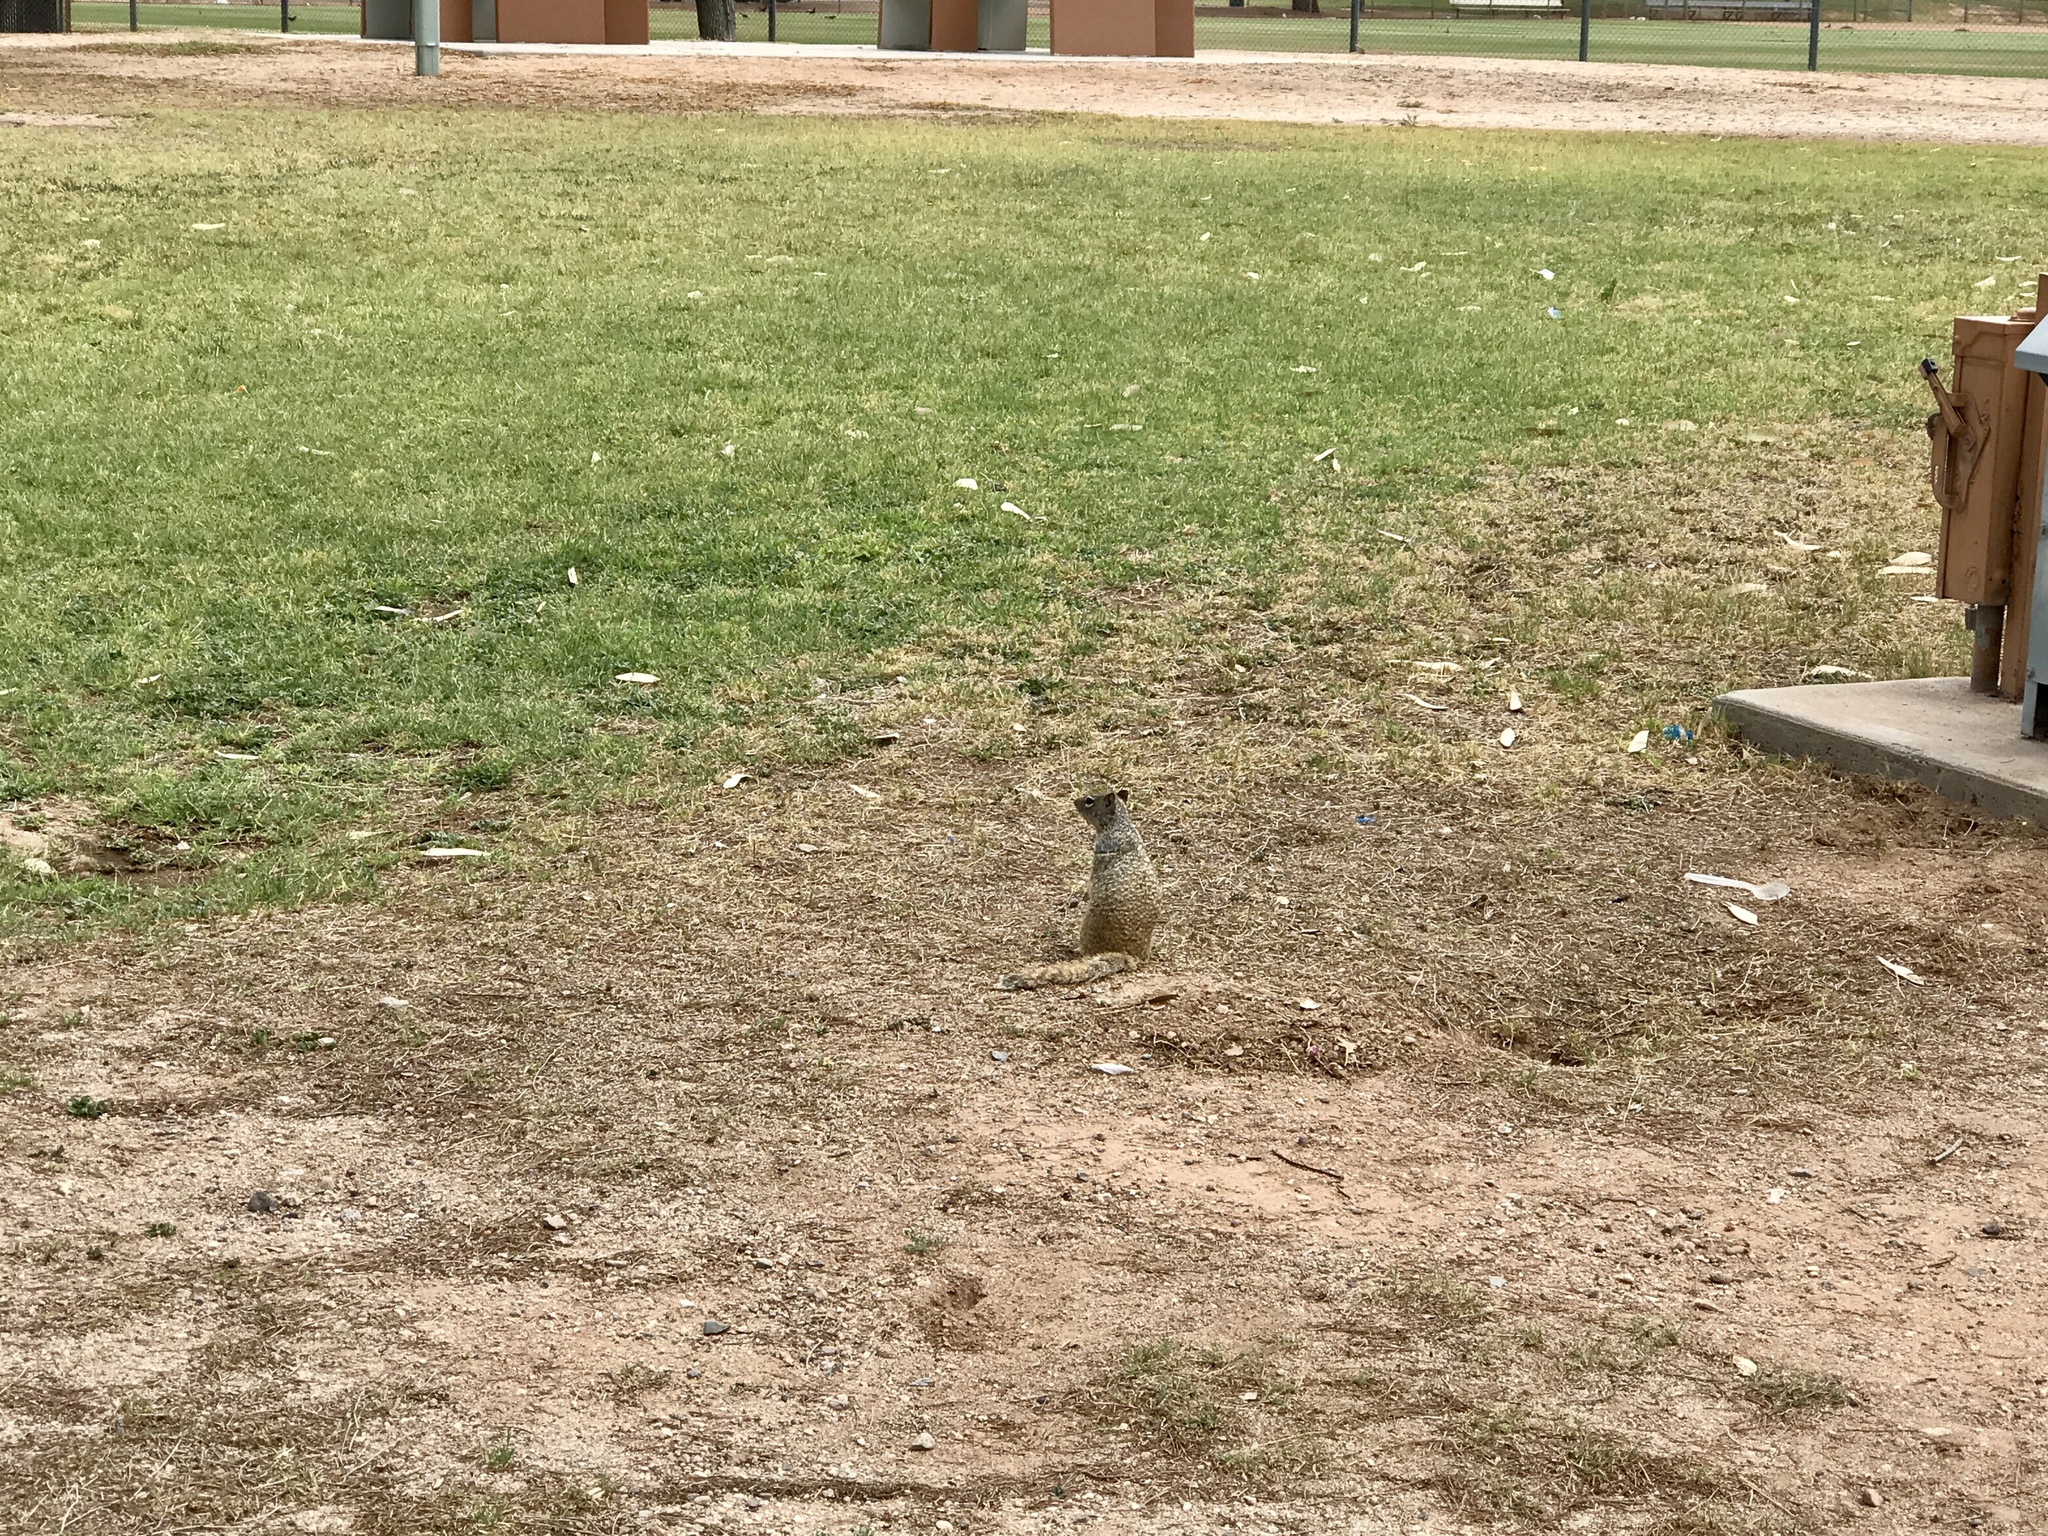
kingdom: Animalia
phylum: Chordata
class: Mammalia
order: Rodentia
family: Sciuridae
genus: Otospermophilus
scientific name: Otospermophilus variegatus
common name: Rock squirrel
